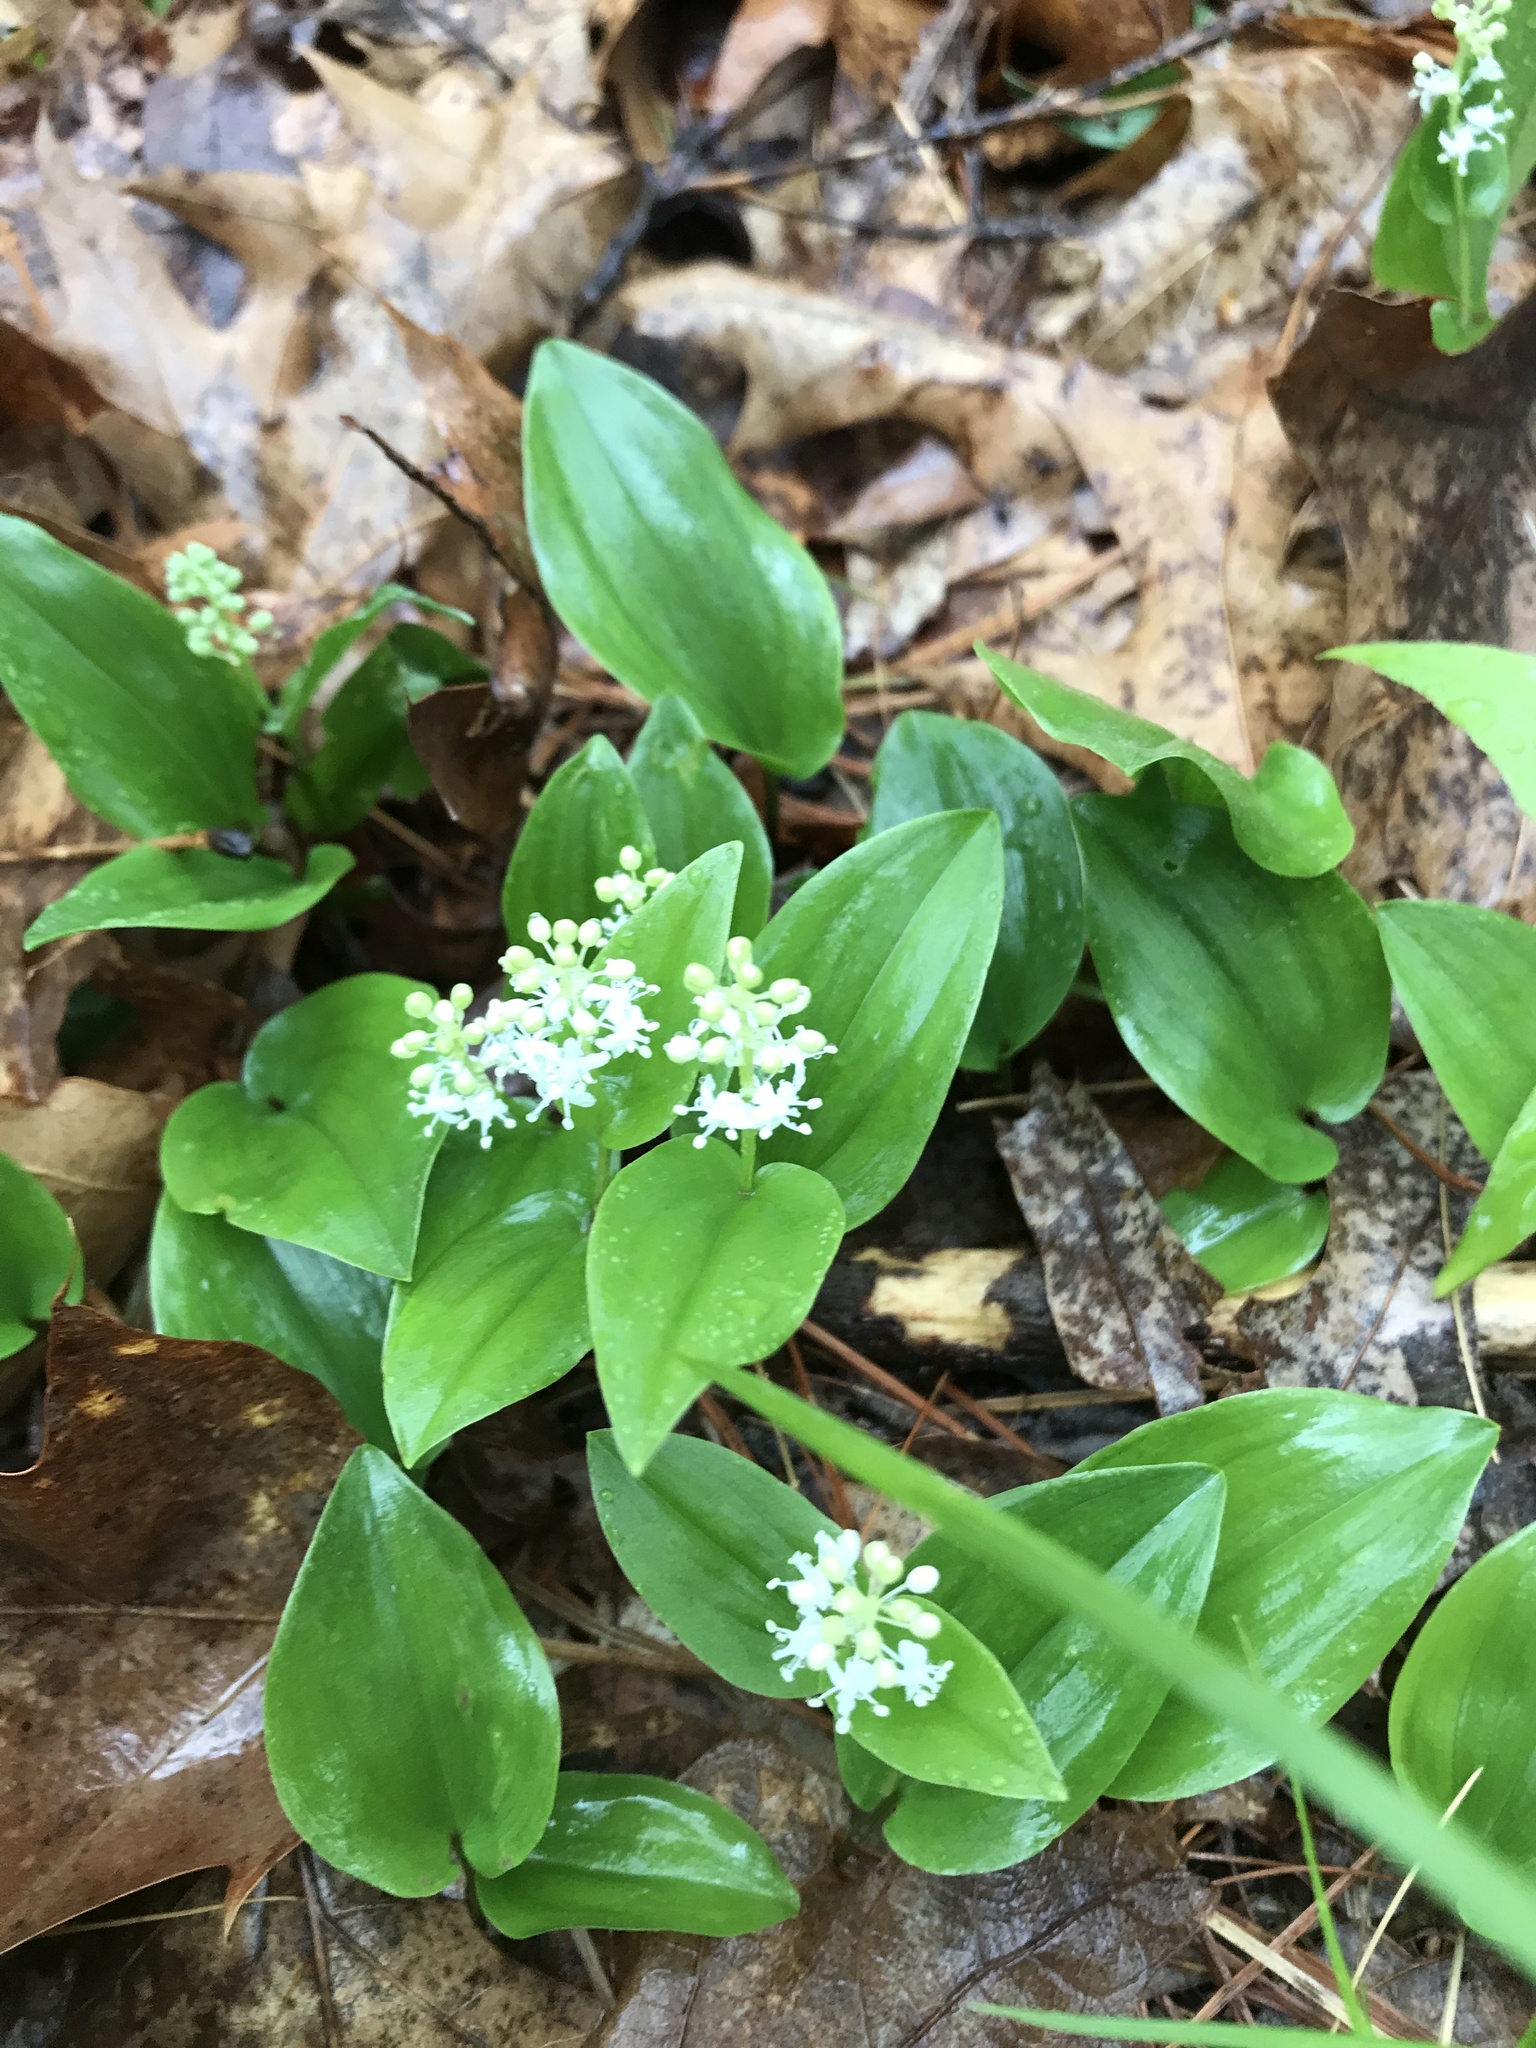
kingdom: Plantae
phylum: Tracheophyta
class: Liliopsida
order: Asparagales
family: Asparagaceae
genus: Maianthemum
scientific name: Maianthemum canadense
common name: False lily-of-the-valley
